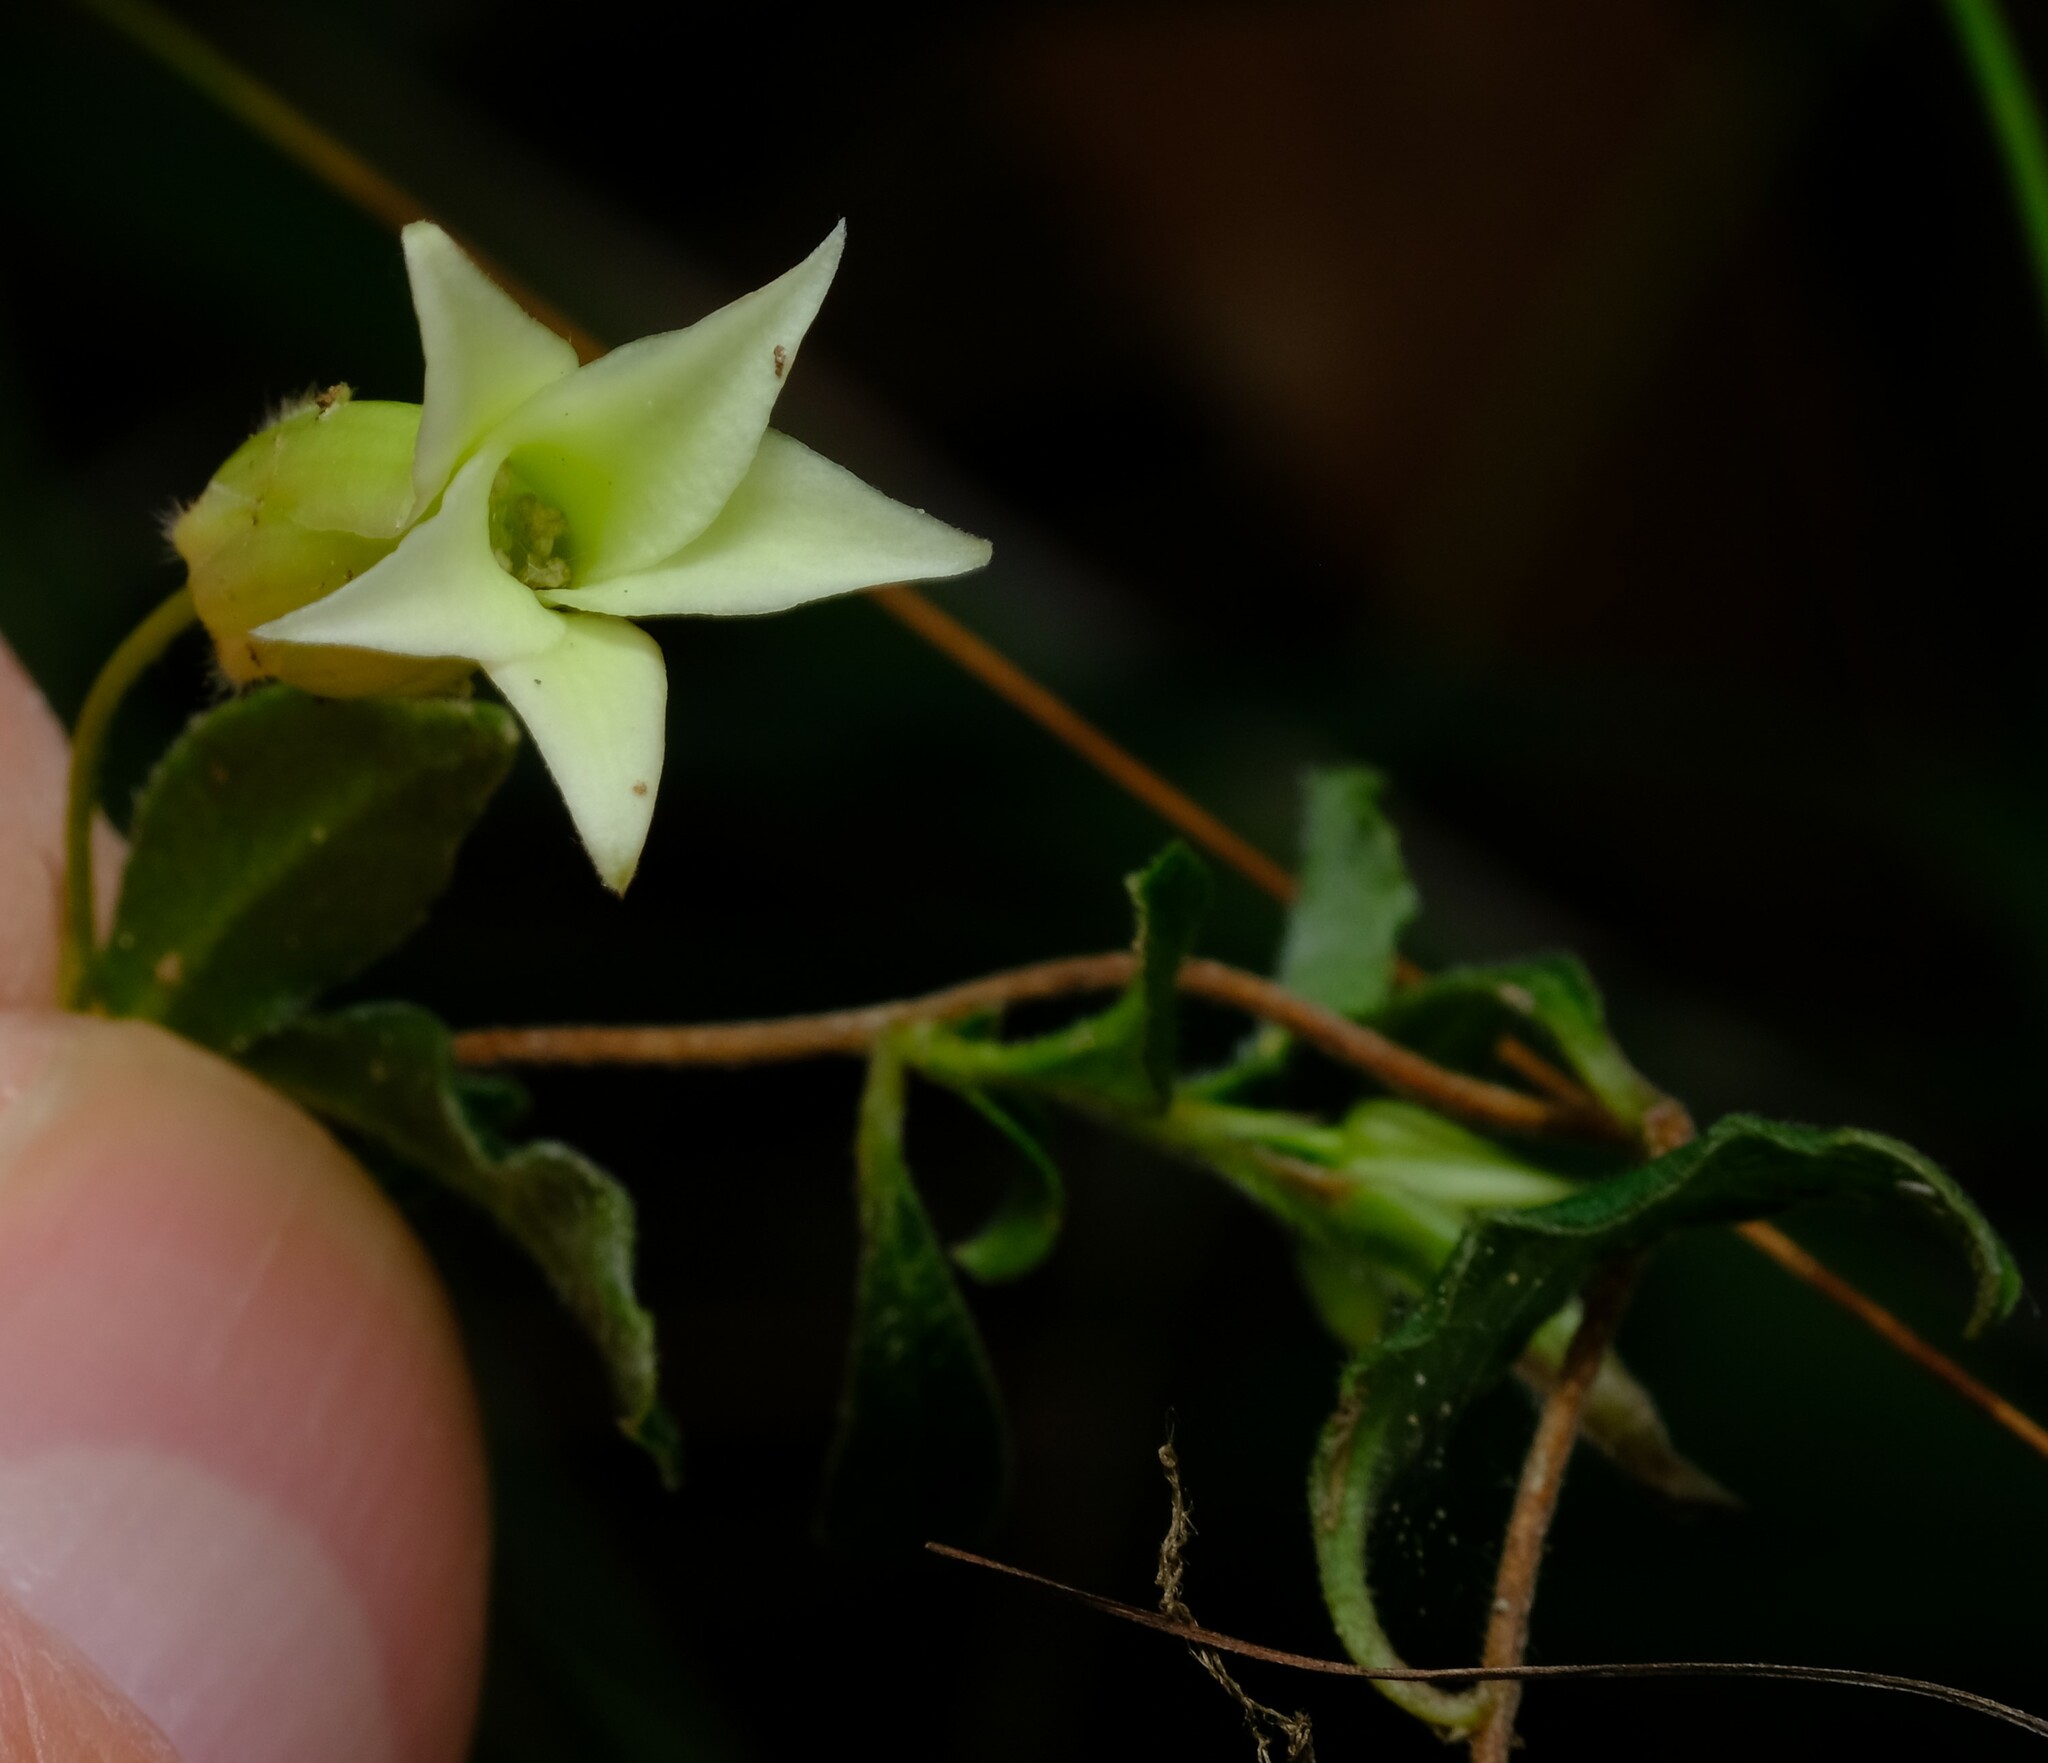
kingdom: Plantae
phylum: Tracheophyta
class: Magnoliopsida
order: Apiales
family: Pittosporaceae
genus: Billardiera
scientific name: Billardiera mutabilis
